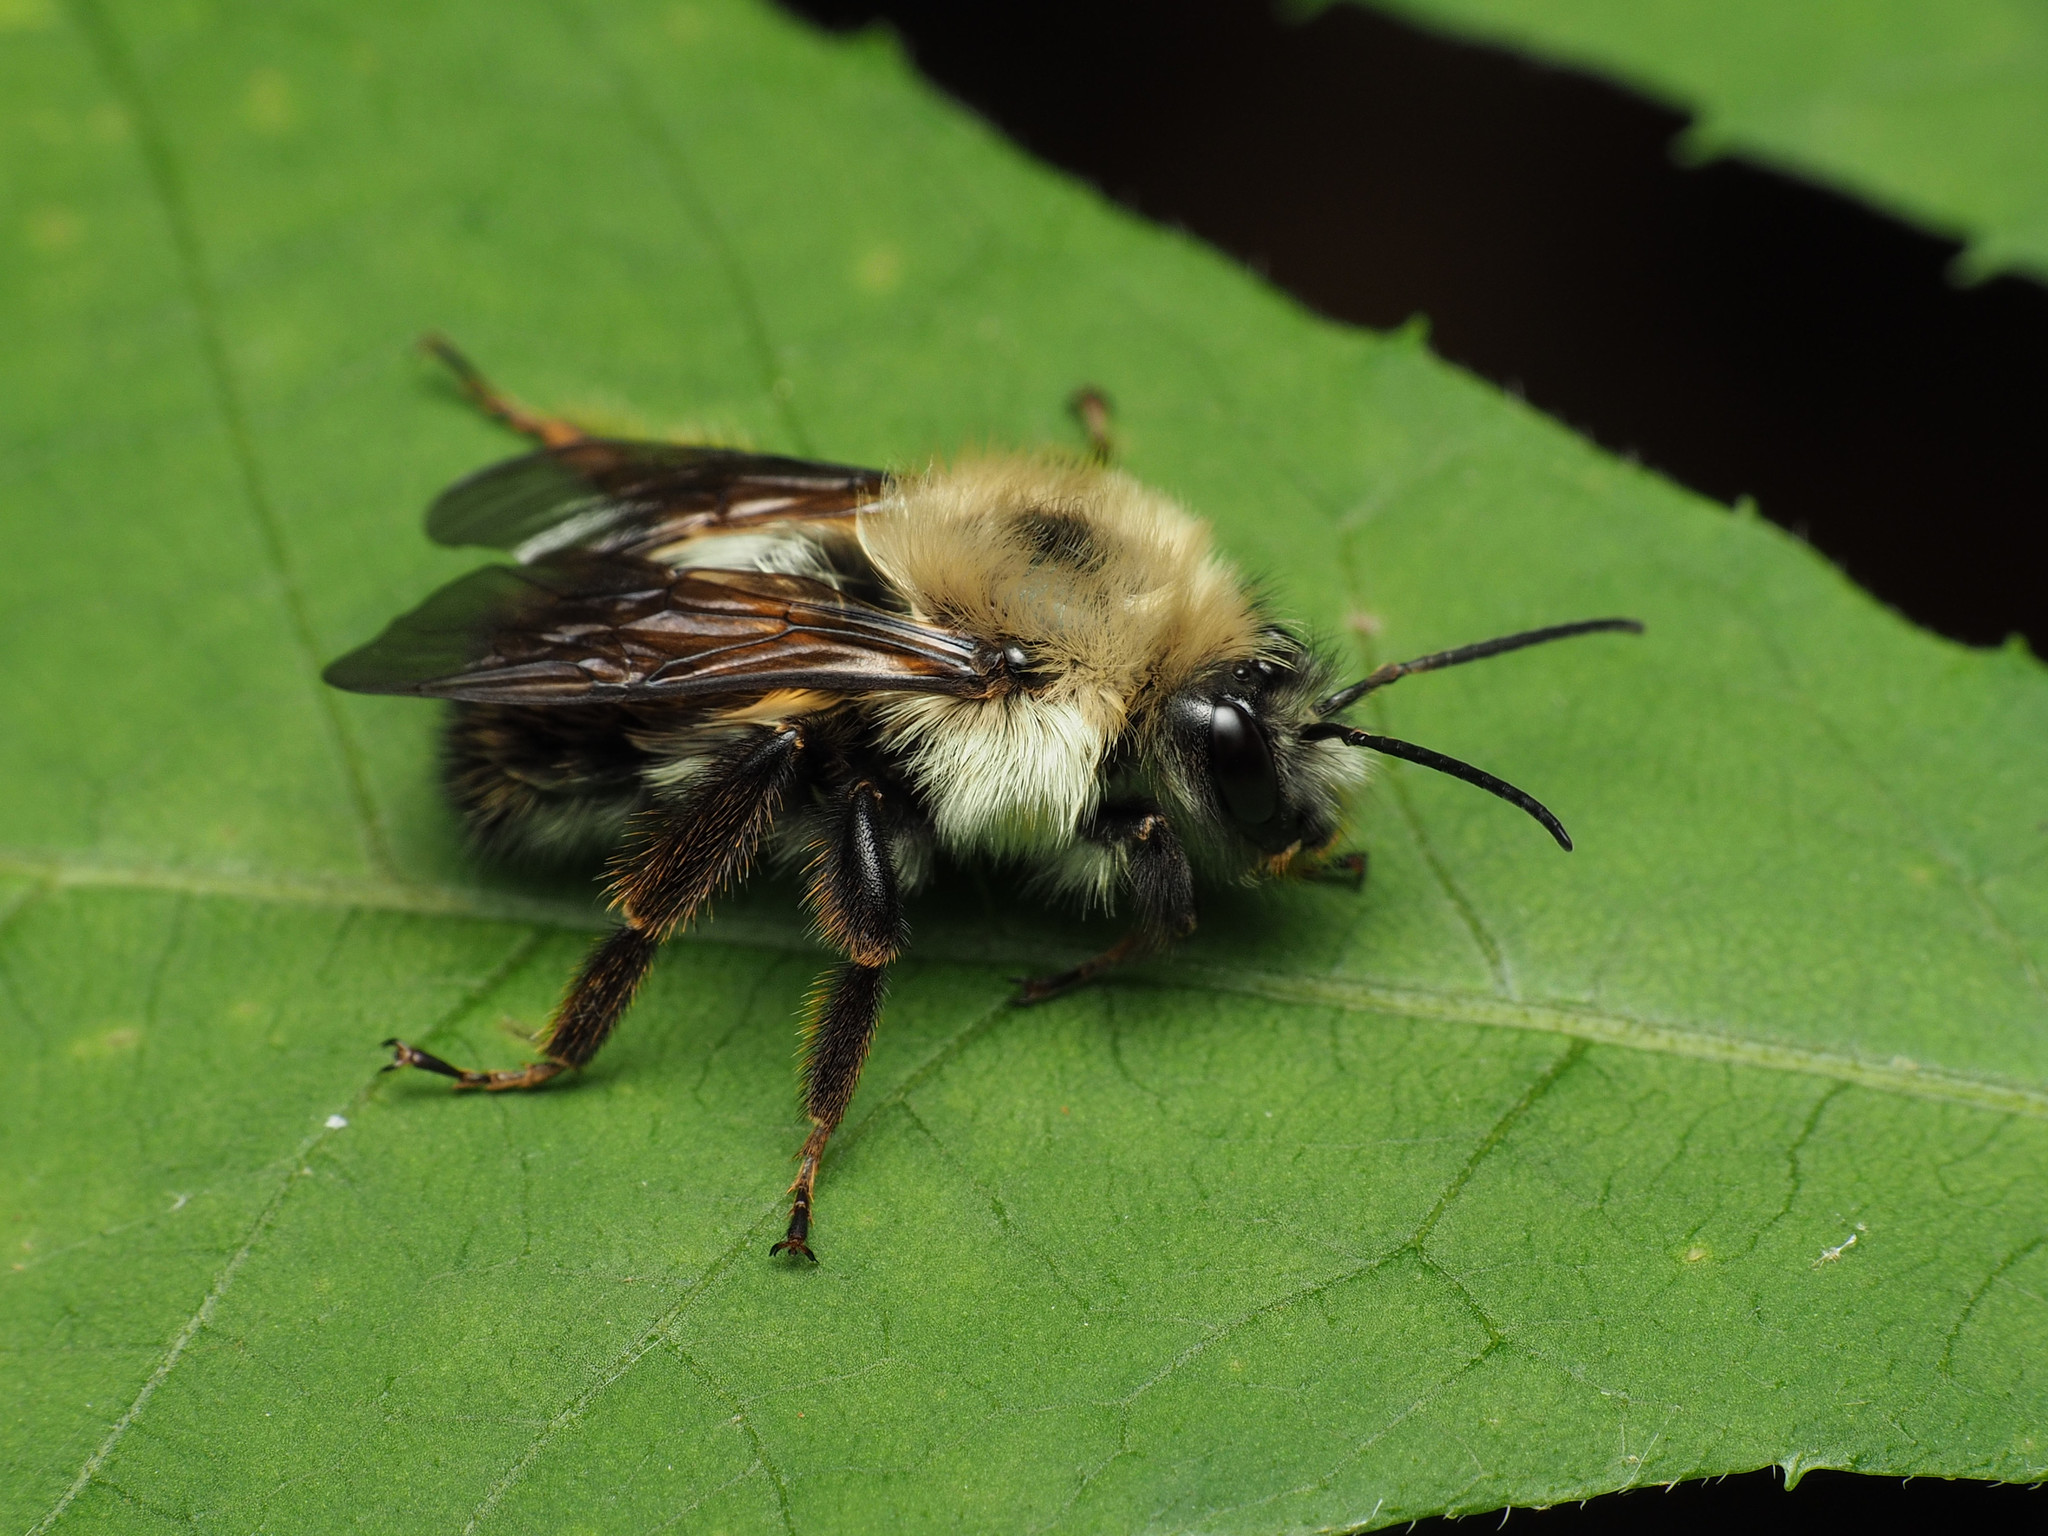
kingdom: Animalia
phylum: Arthropoda
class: Insecta
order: Hymenoptera
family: Apidae
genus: Bombus
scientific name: Bombus bimaculatus
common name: Two-spotted bumble bee
